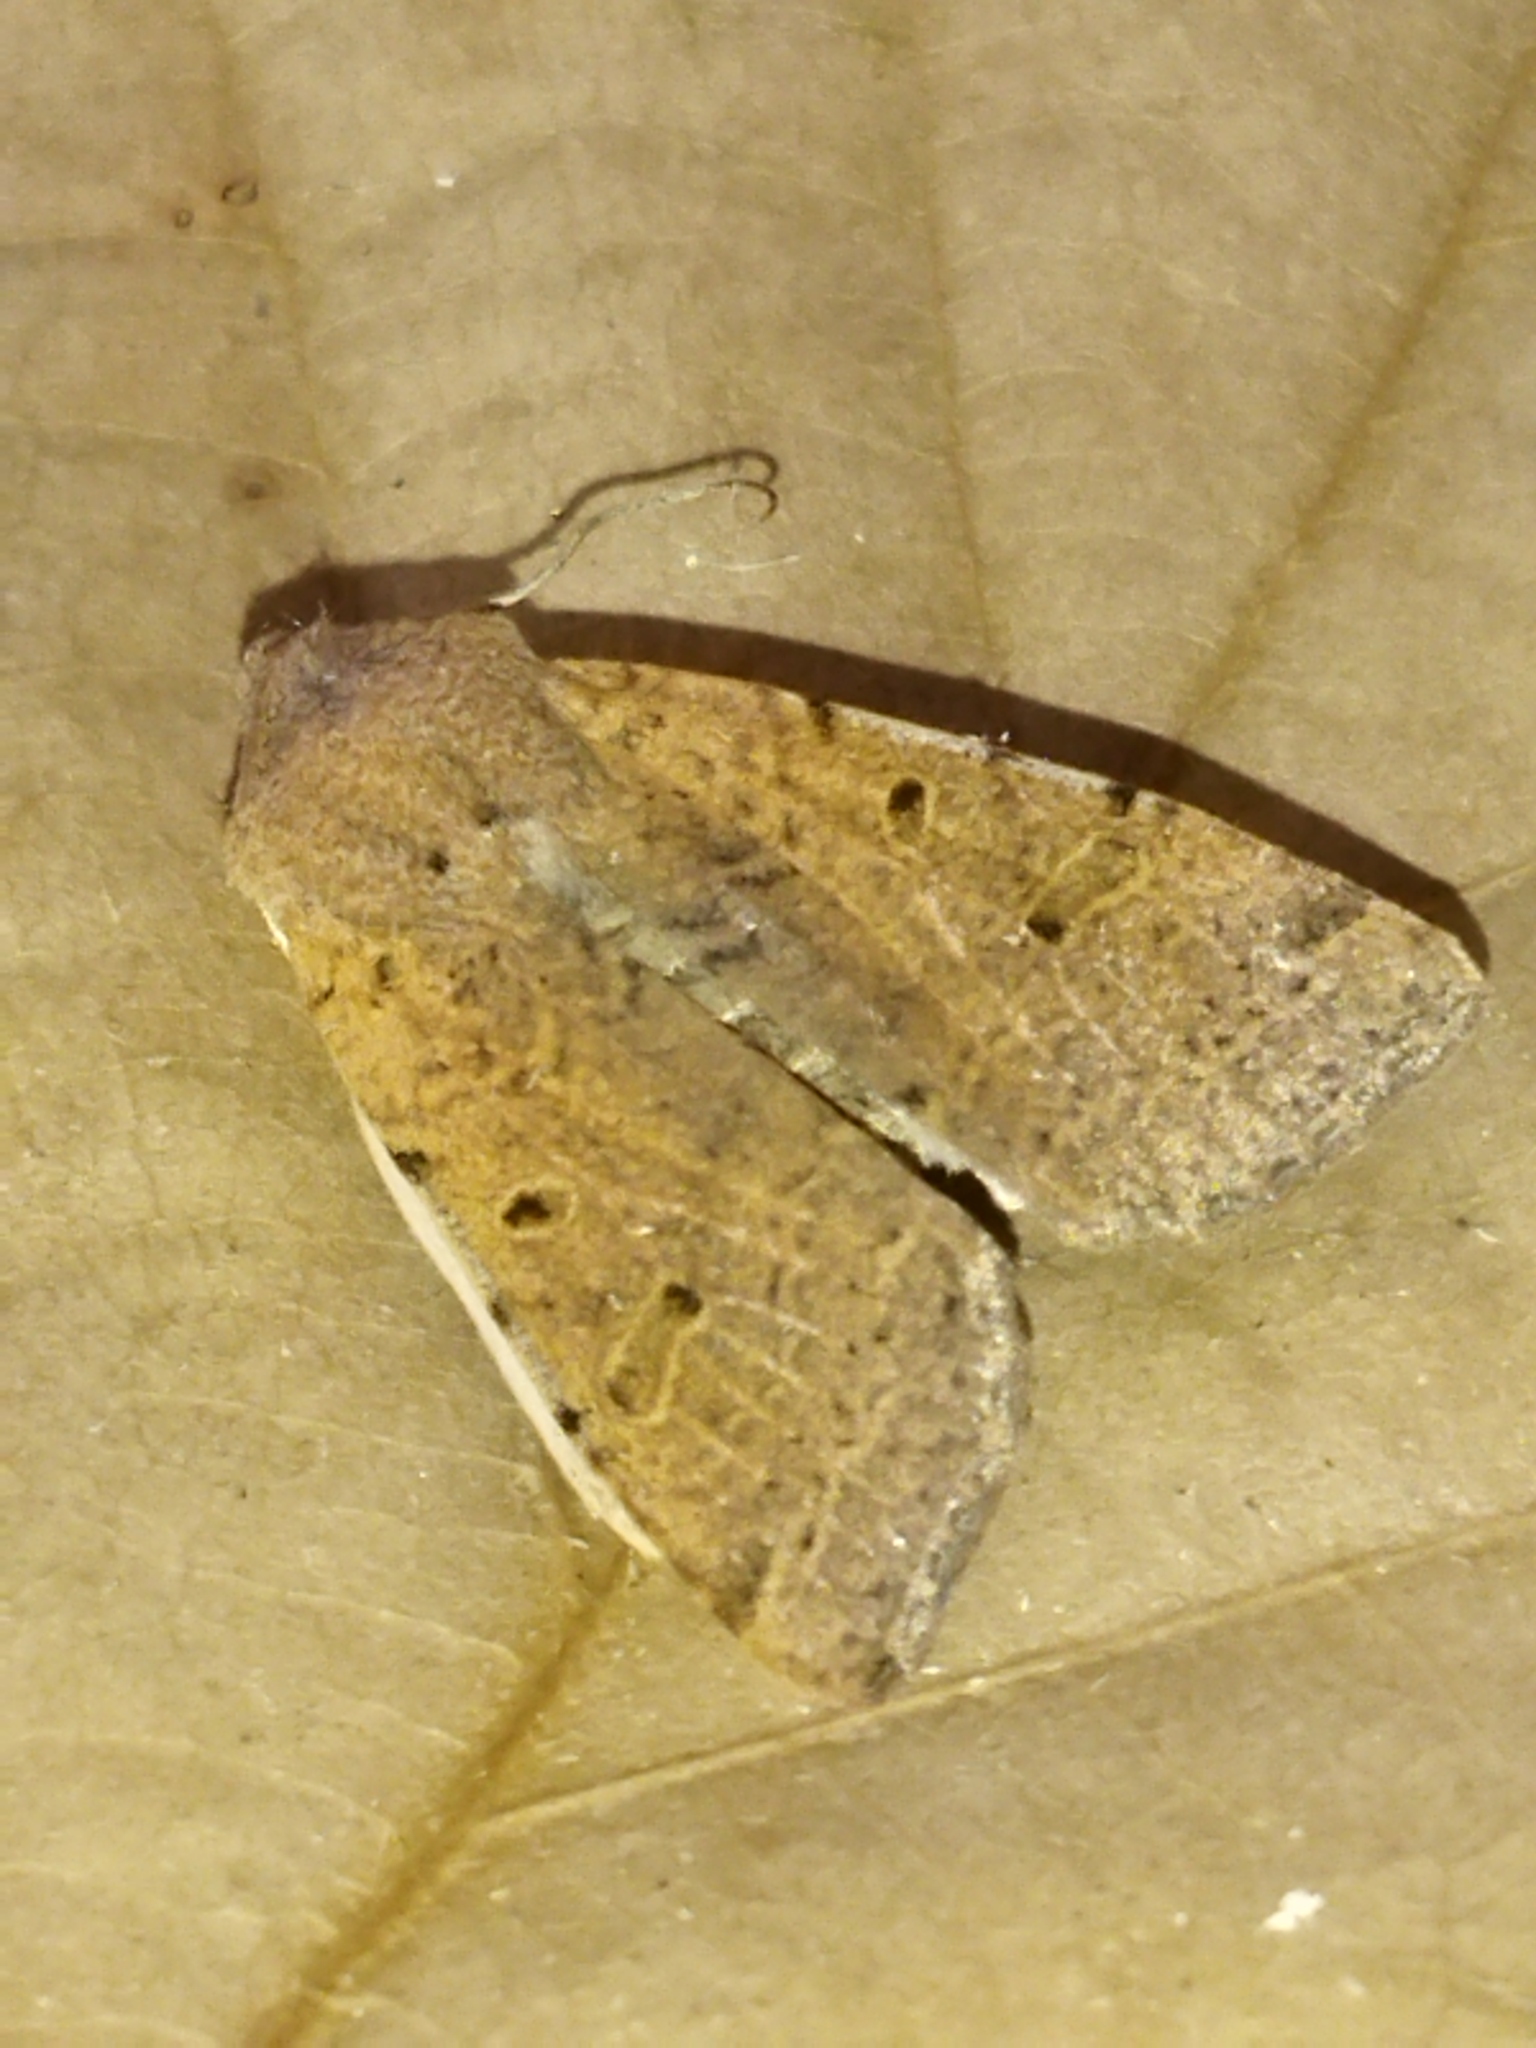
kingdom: Animalia
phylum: Arthropoda
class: Insecta
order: Lepidoptera
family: Noctuidae
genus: Agrochola
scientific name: Agrochola lychnidis
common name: Beaded chestnut
